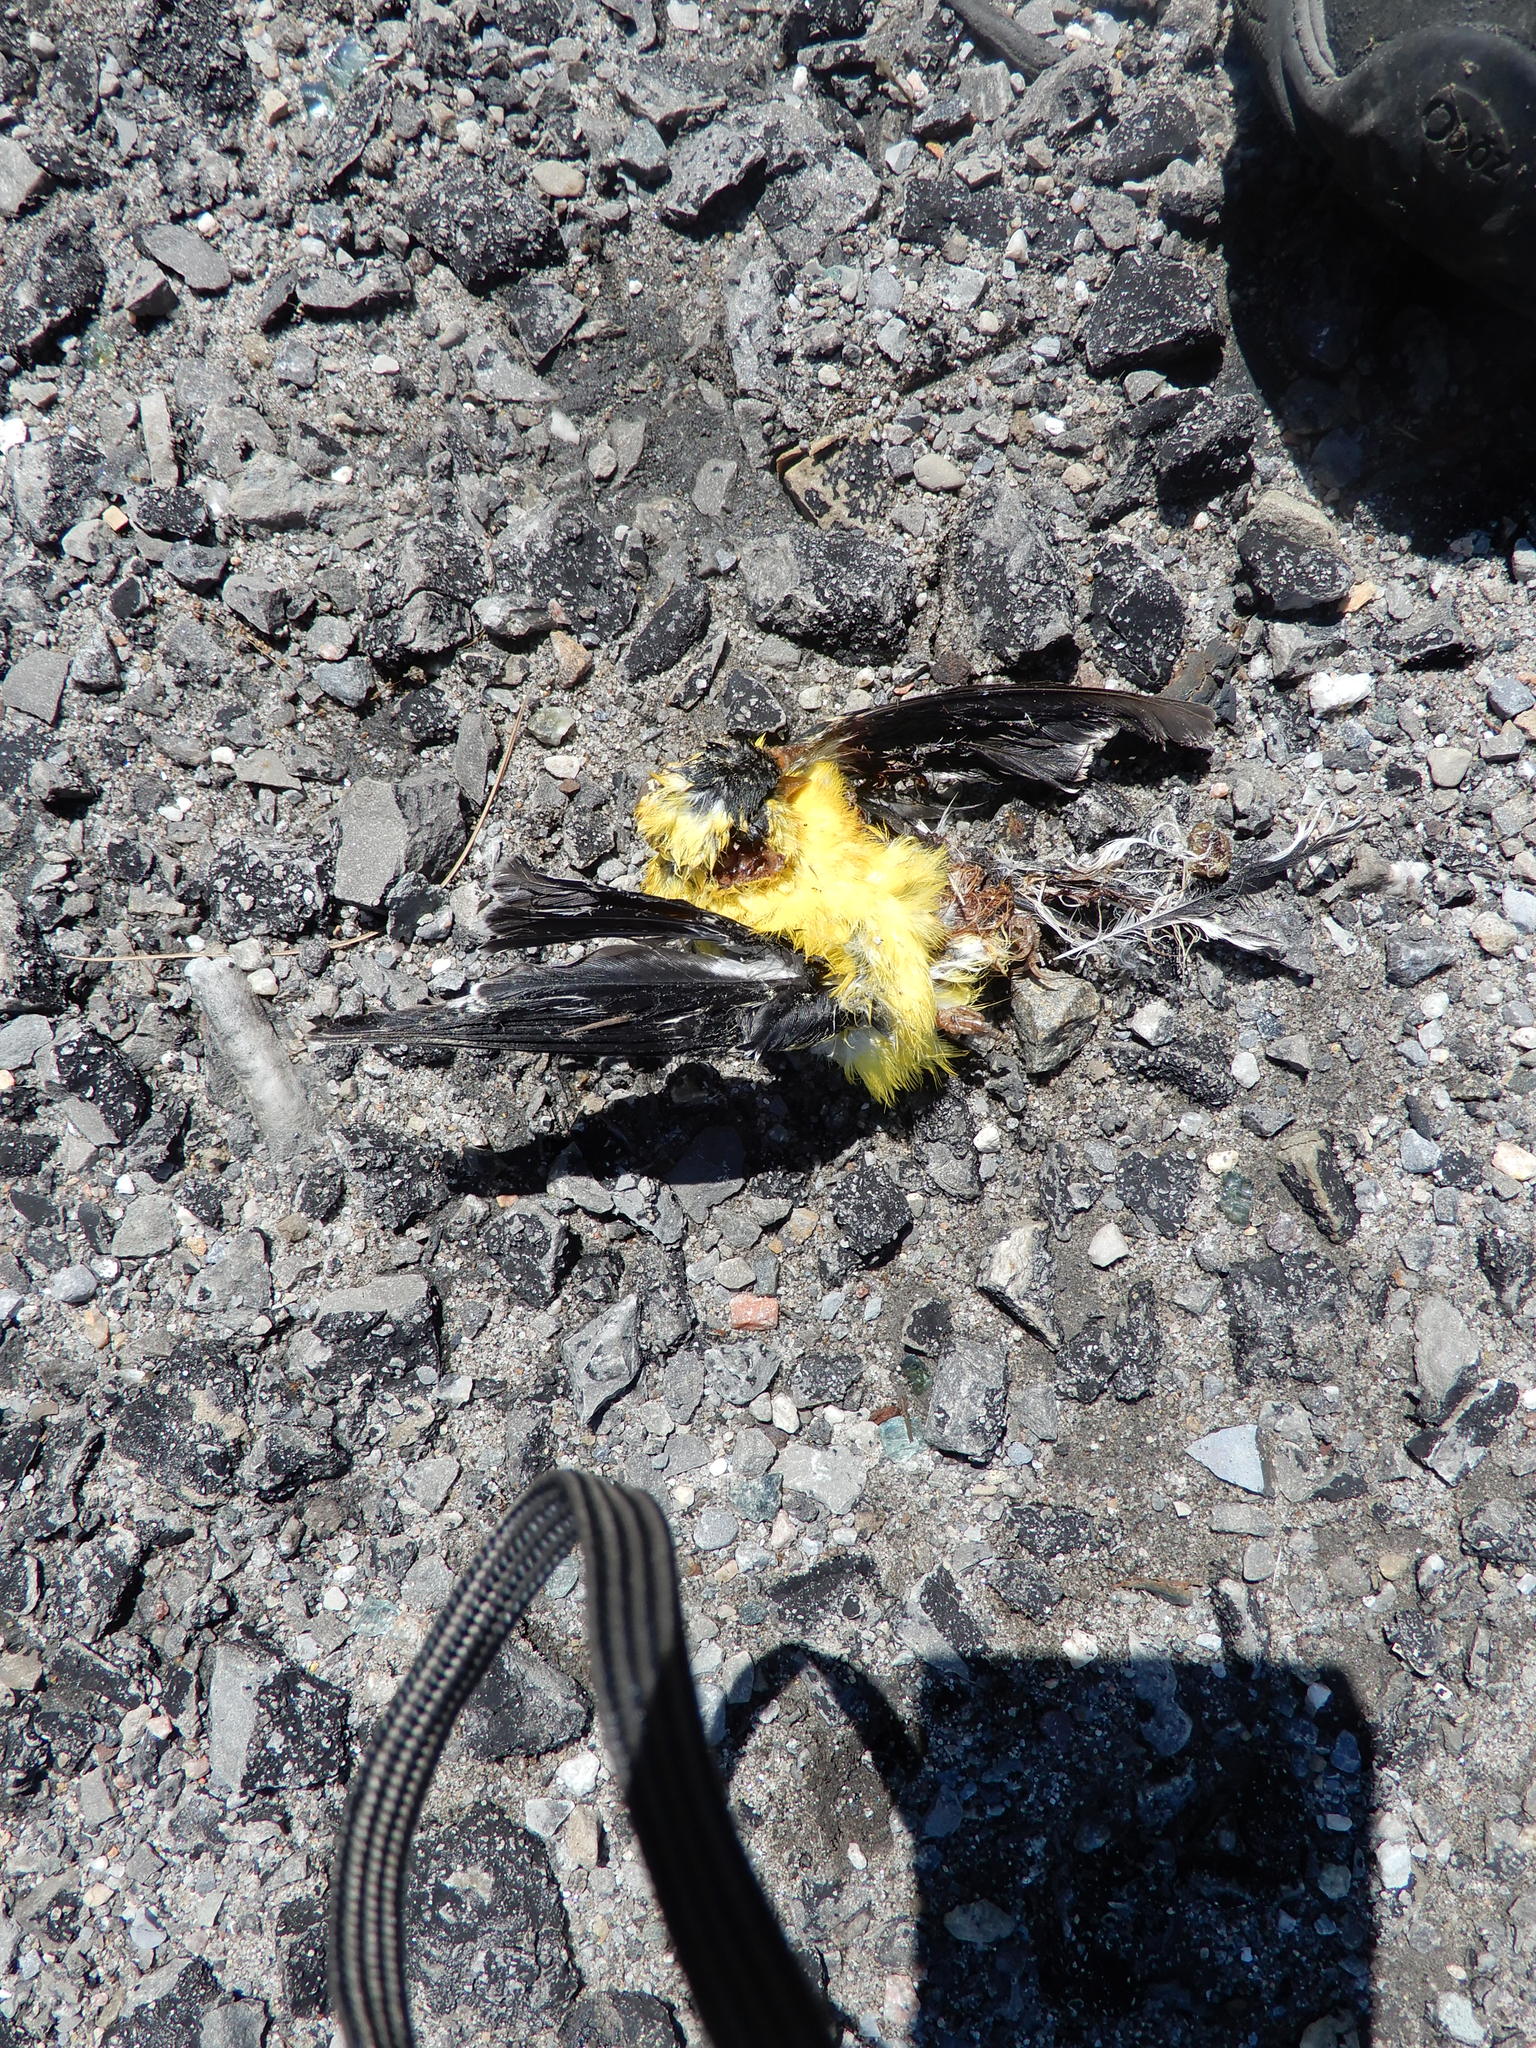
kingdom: Animalia
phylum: Chordata
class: Aves
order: Passeriformes
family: Fringillidae
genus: Spinus
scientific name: Spinus tristis
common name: American goldfinch
